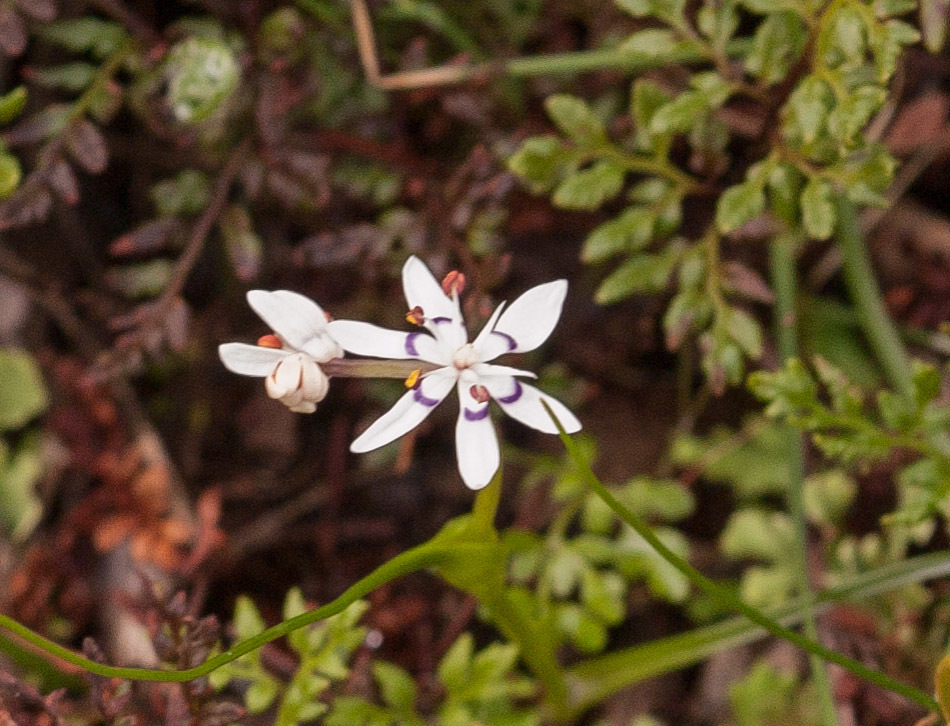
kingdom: Plantae
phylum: Tracheophyta
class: Liliopsida
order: Liliales
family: Colchicaceae
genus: Wurmbea
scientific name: Wurmbea dioica
